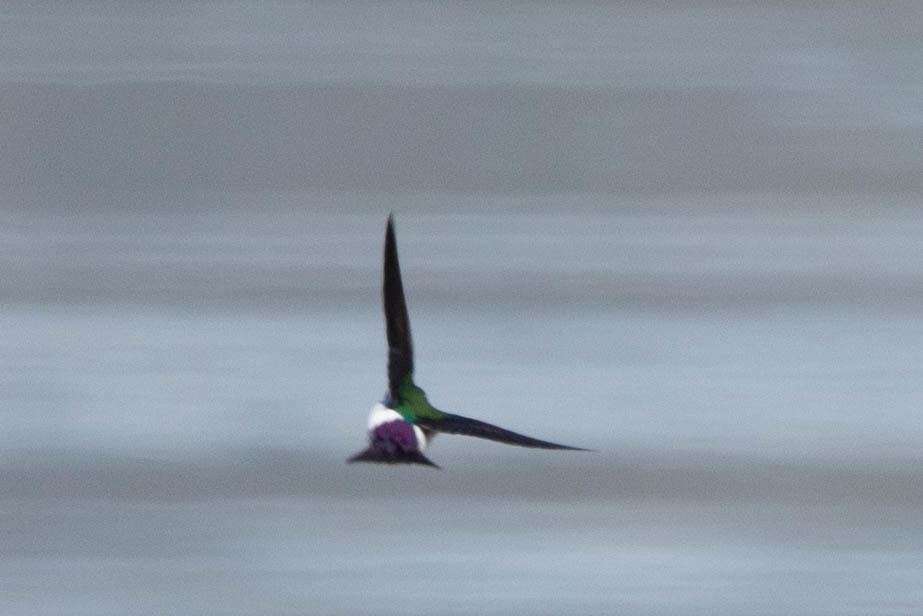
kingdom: Animalia
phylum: Chordata
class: Aves
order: Passeriformes
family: Hirundinidae
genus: Tachycineta
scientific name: Tachycineta thalassina
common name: Violet-green swallow
